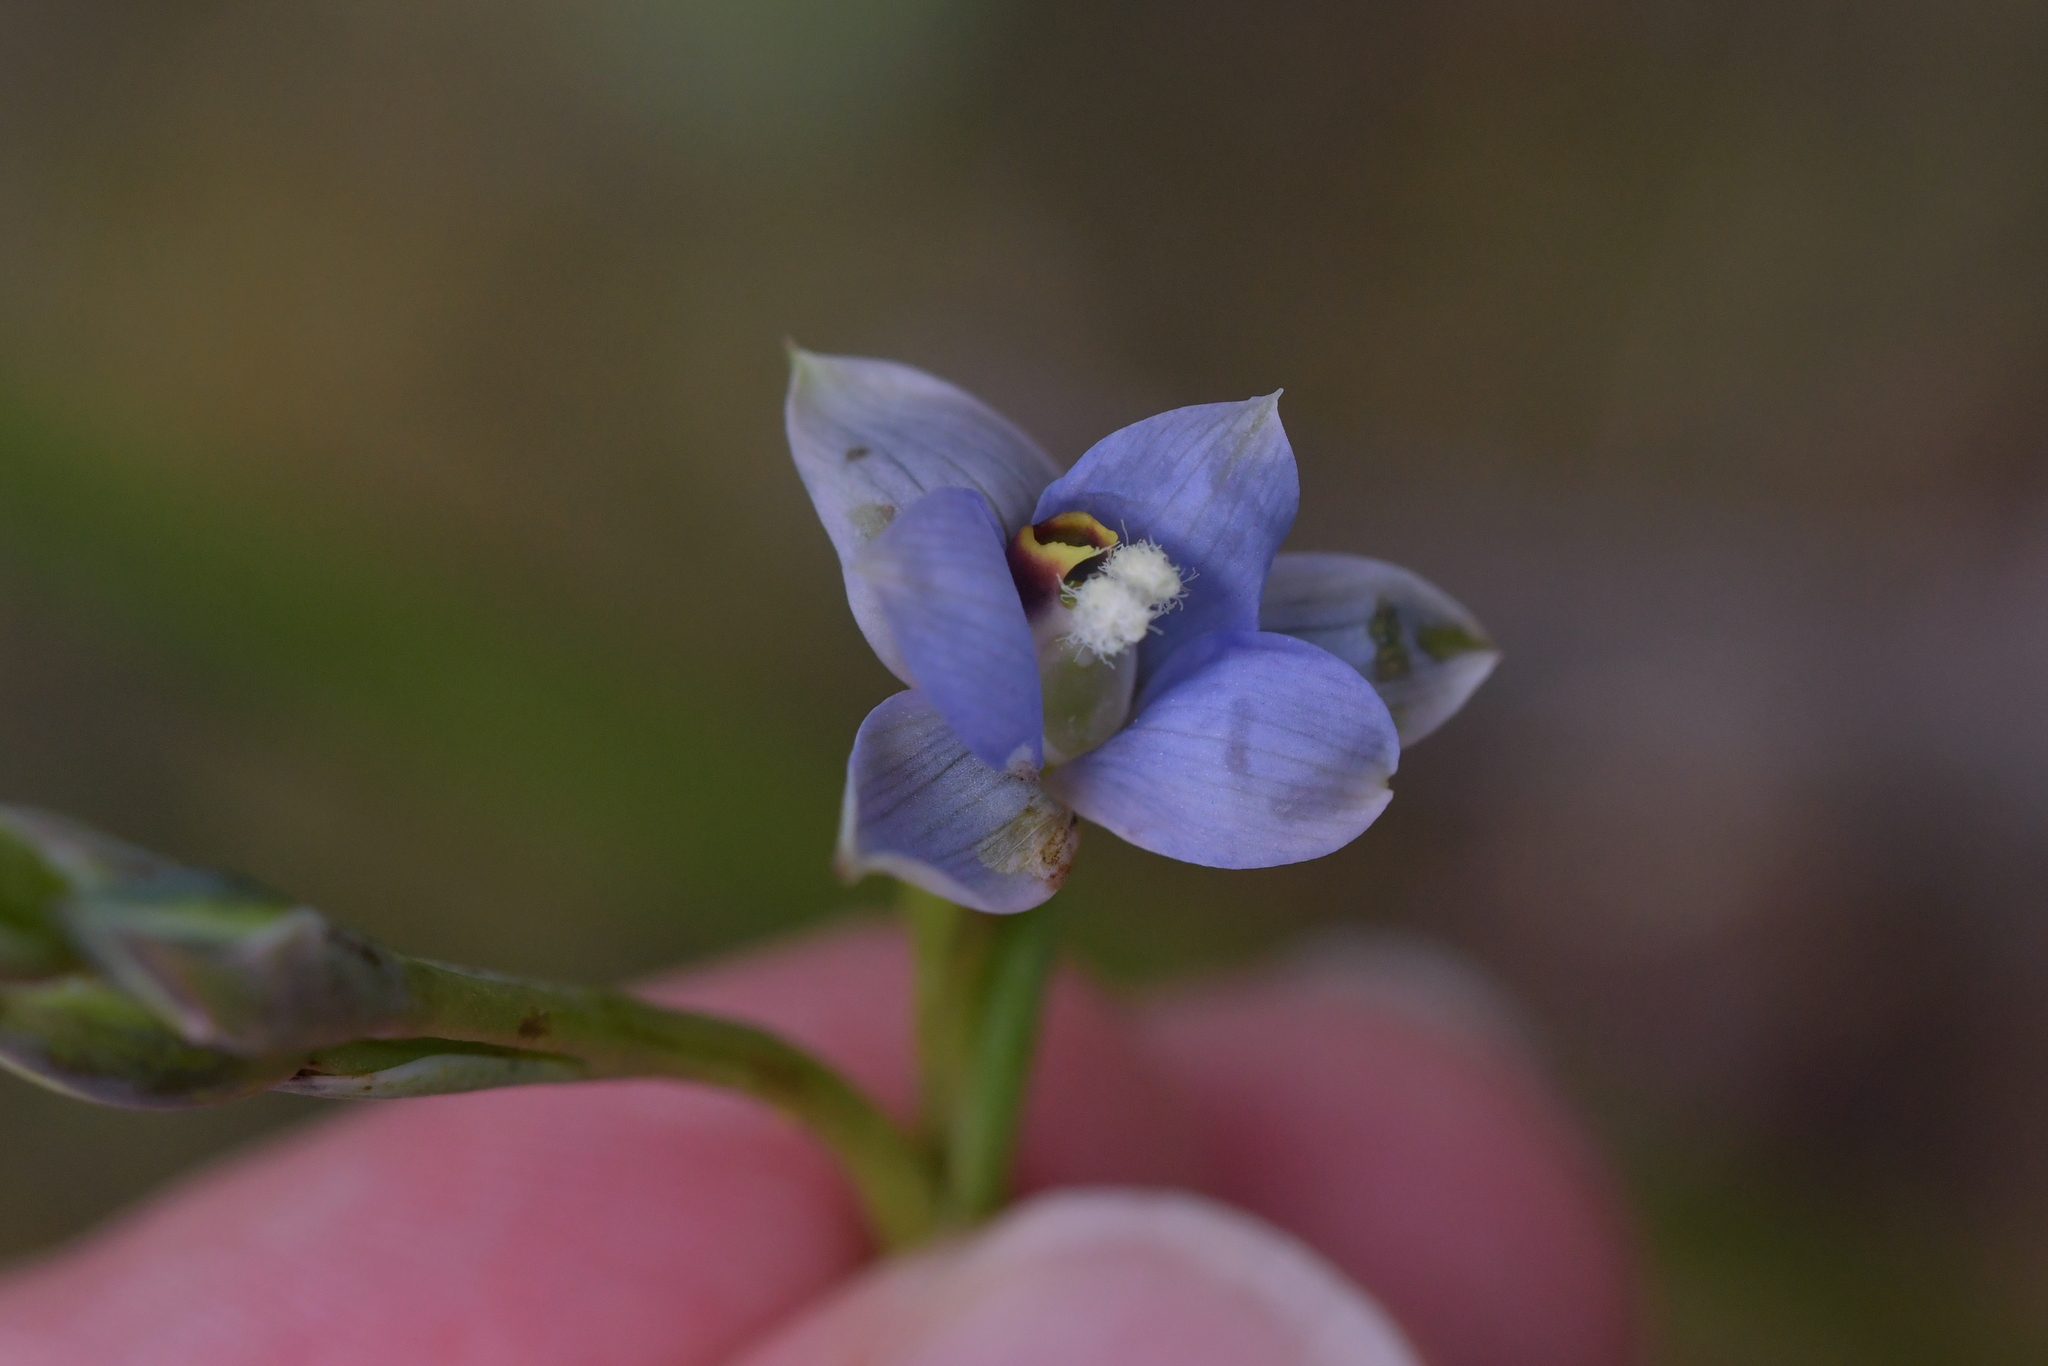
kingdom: Plantae
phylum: Tracheophyta
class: Liliopsida
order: Asparagales
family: Orchidaceae
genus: Thelymitra
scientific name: Thelymitra hatchii
